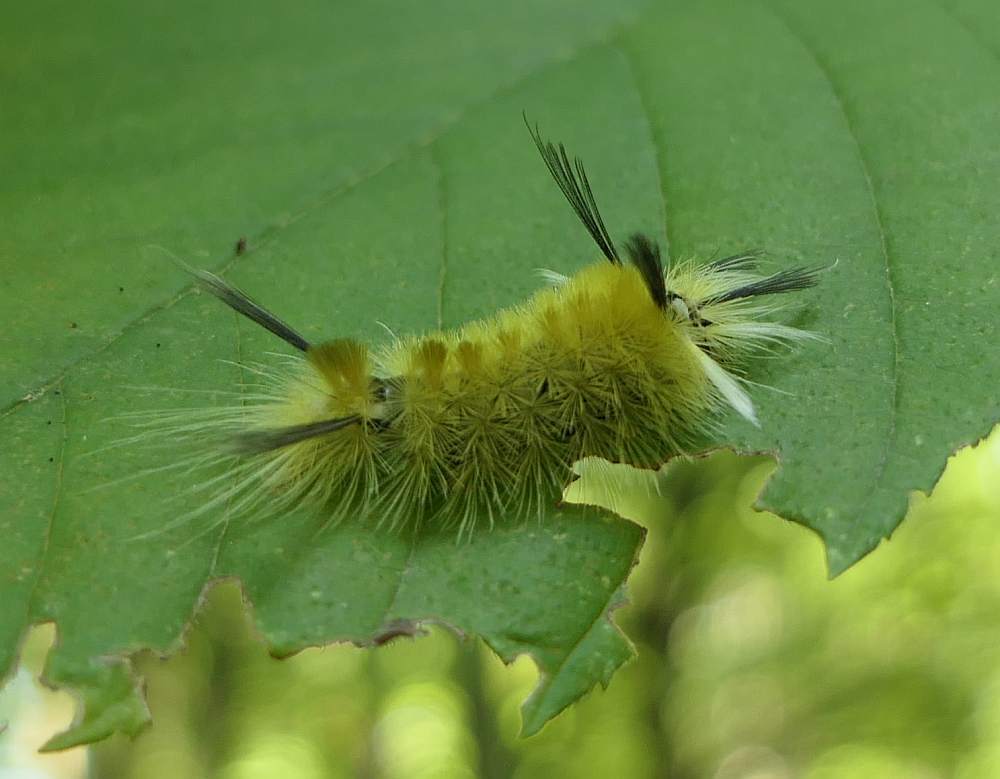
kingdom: Animalia
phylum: Arthropoda
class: Insecta
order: Lepidoptera
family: Erebidae
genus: Halysidota
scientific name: Halysidota tessellaris
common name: Banded tussock moth
